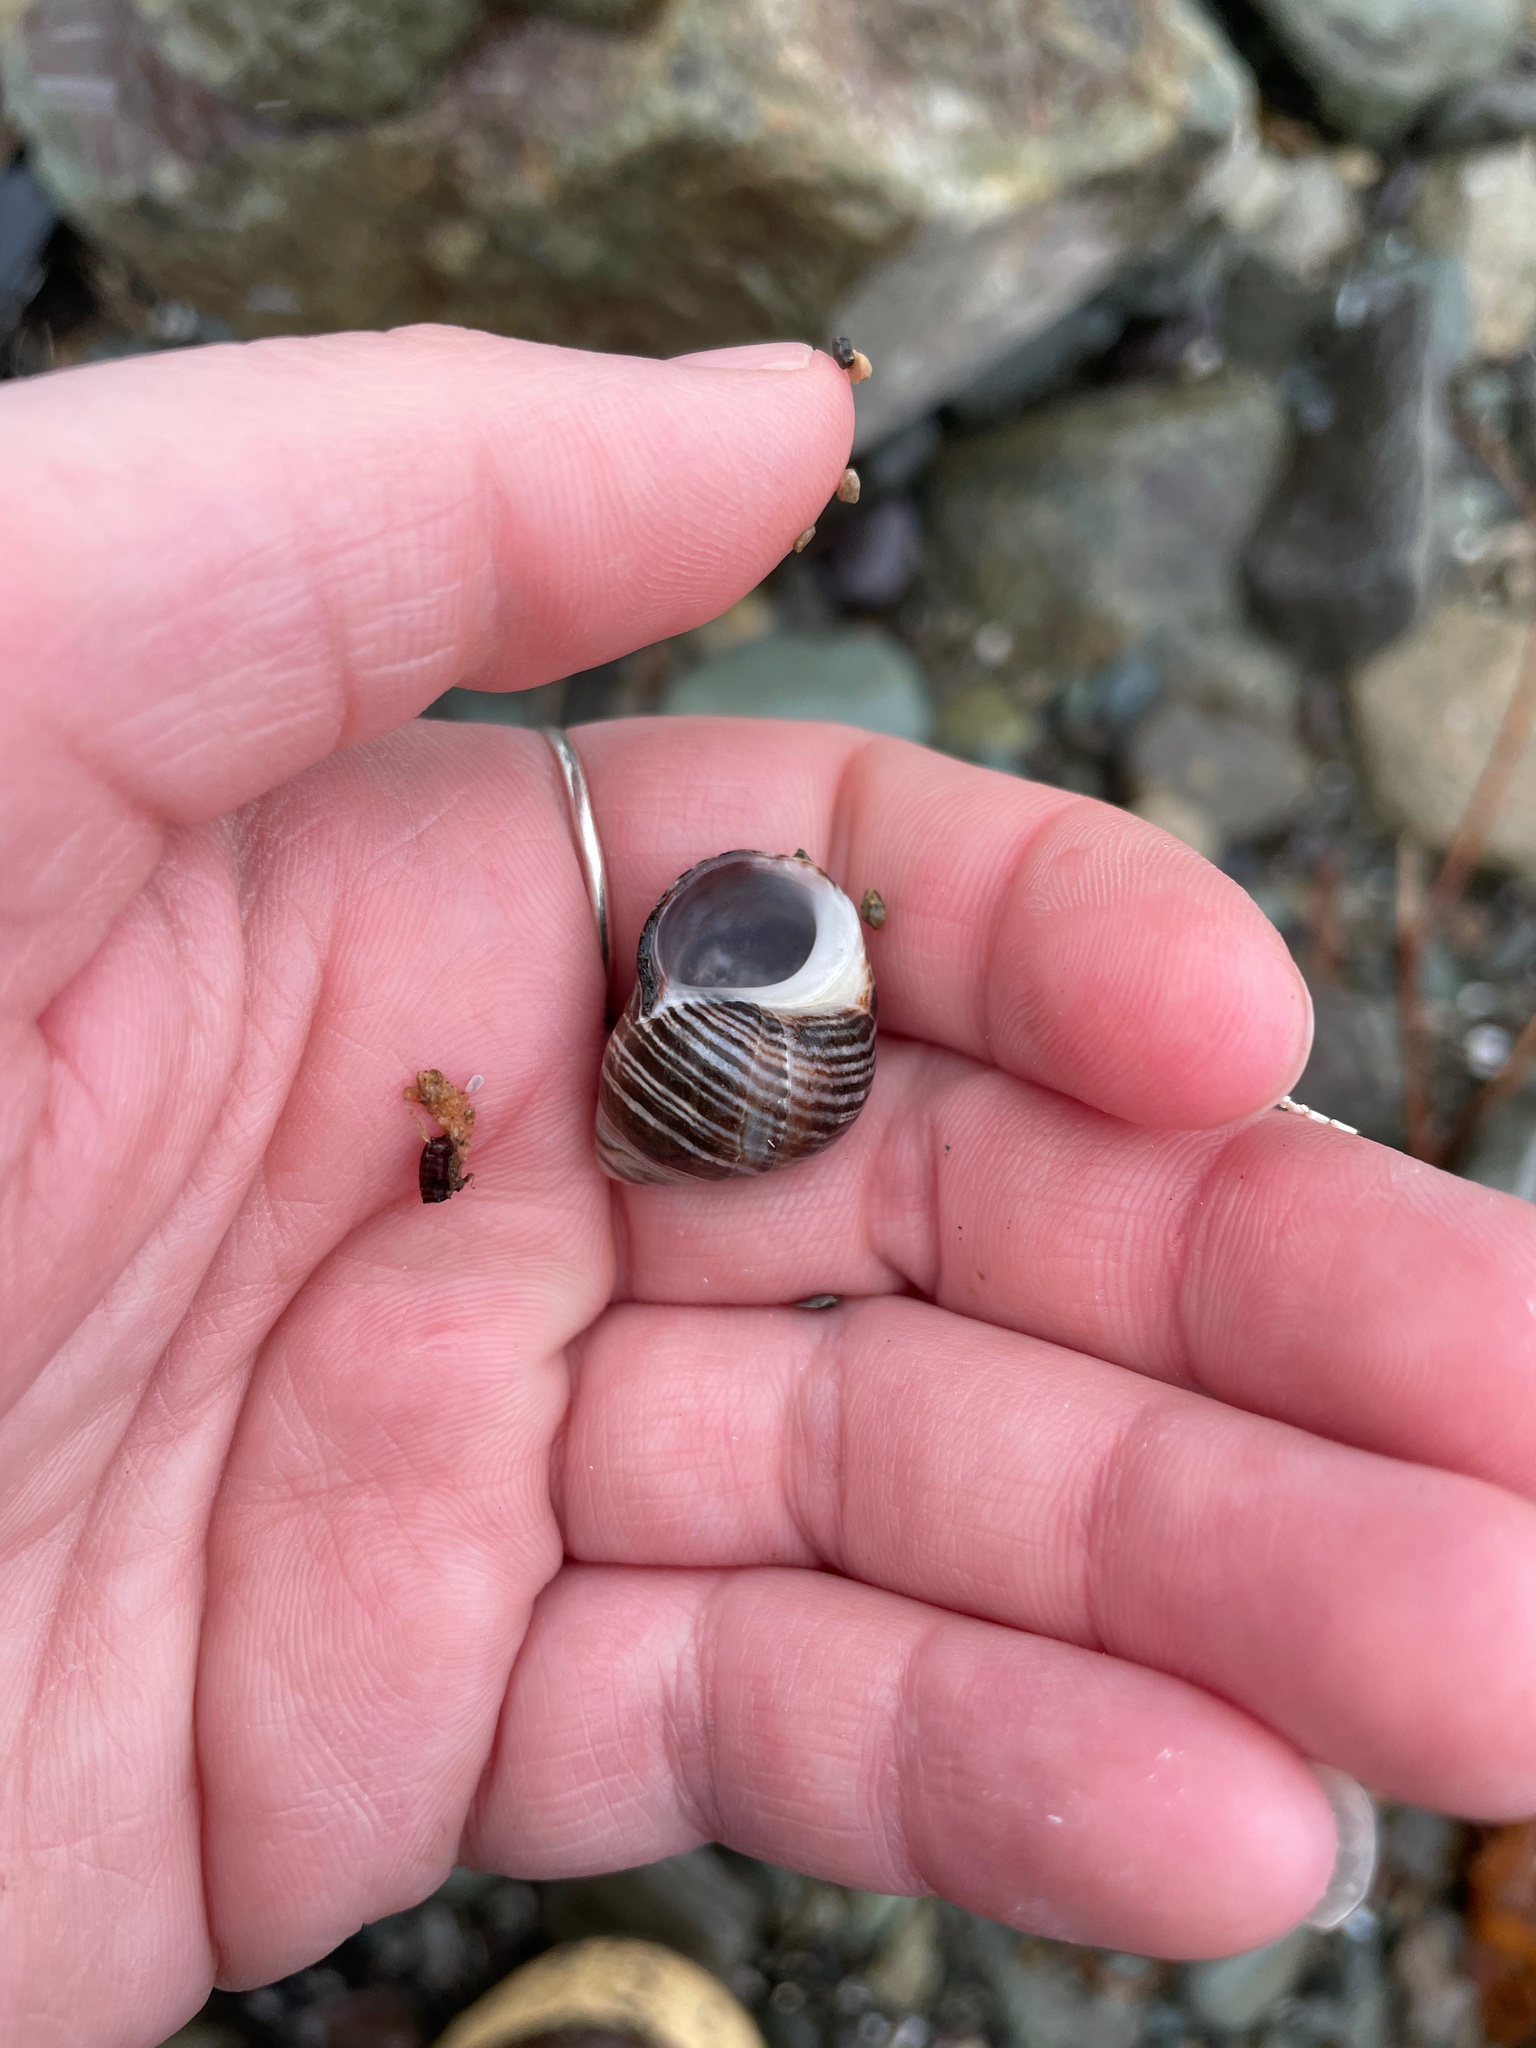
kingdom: Animalia
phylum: Mollusca
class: Gastropoda
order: Littorinimorpha
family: Littorinidae
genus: Littorina
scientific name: Littorina littorea
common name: Common periwinkle
